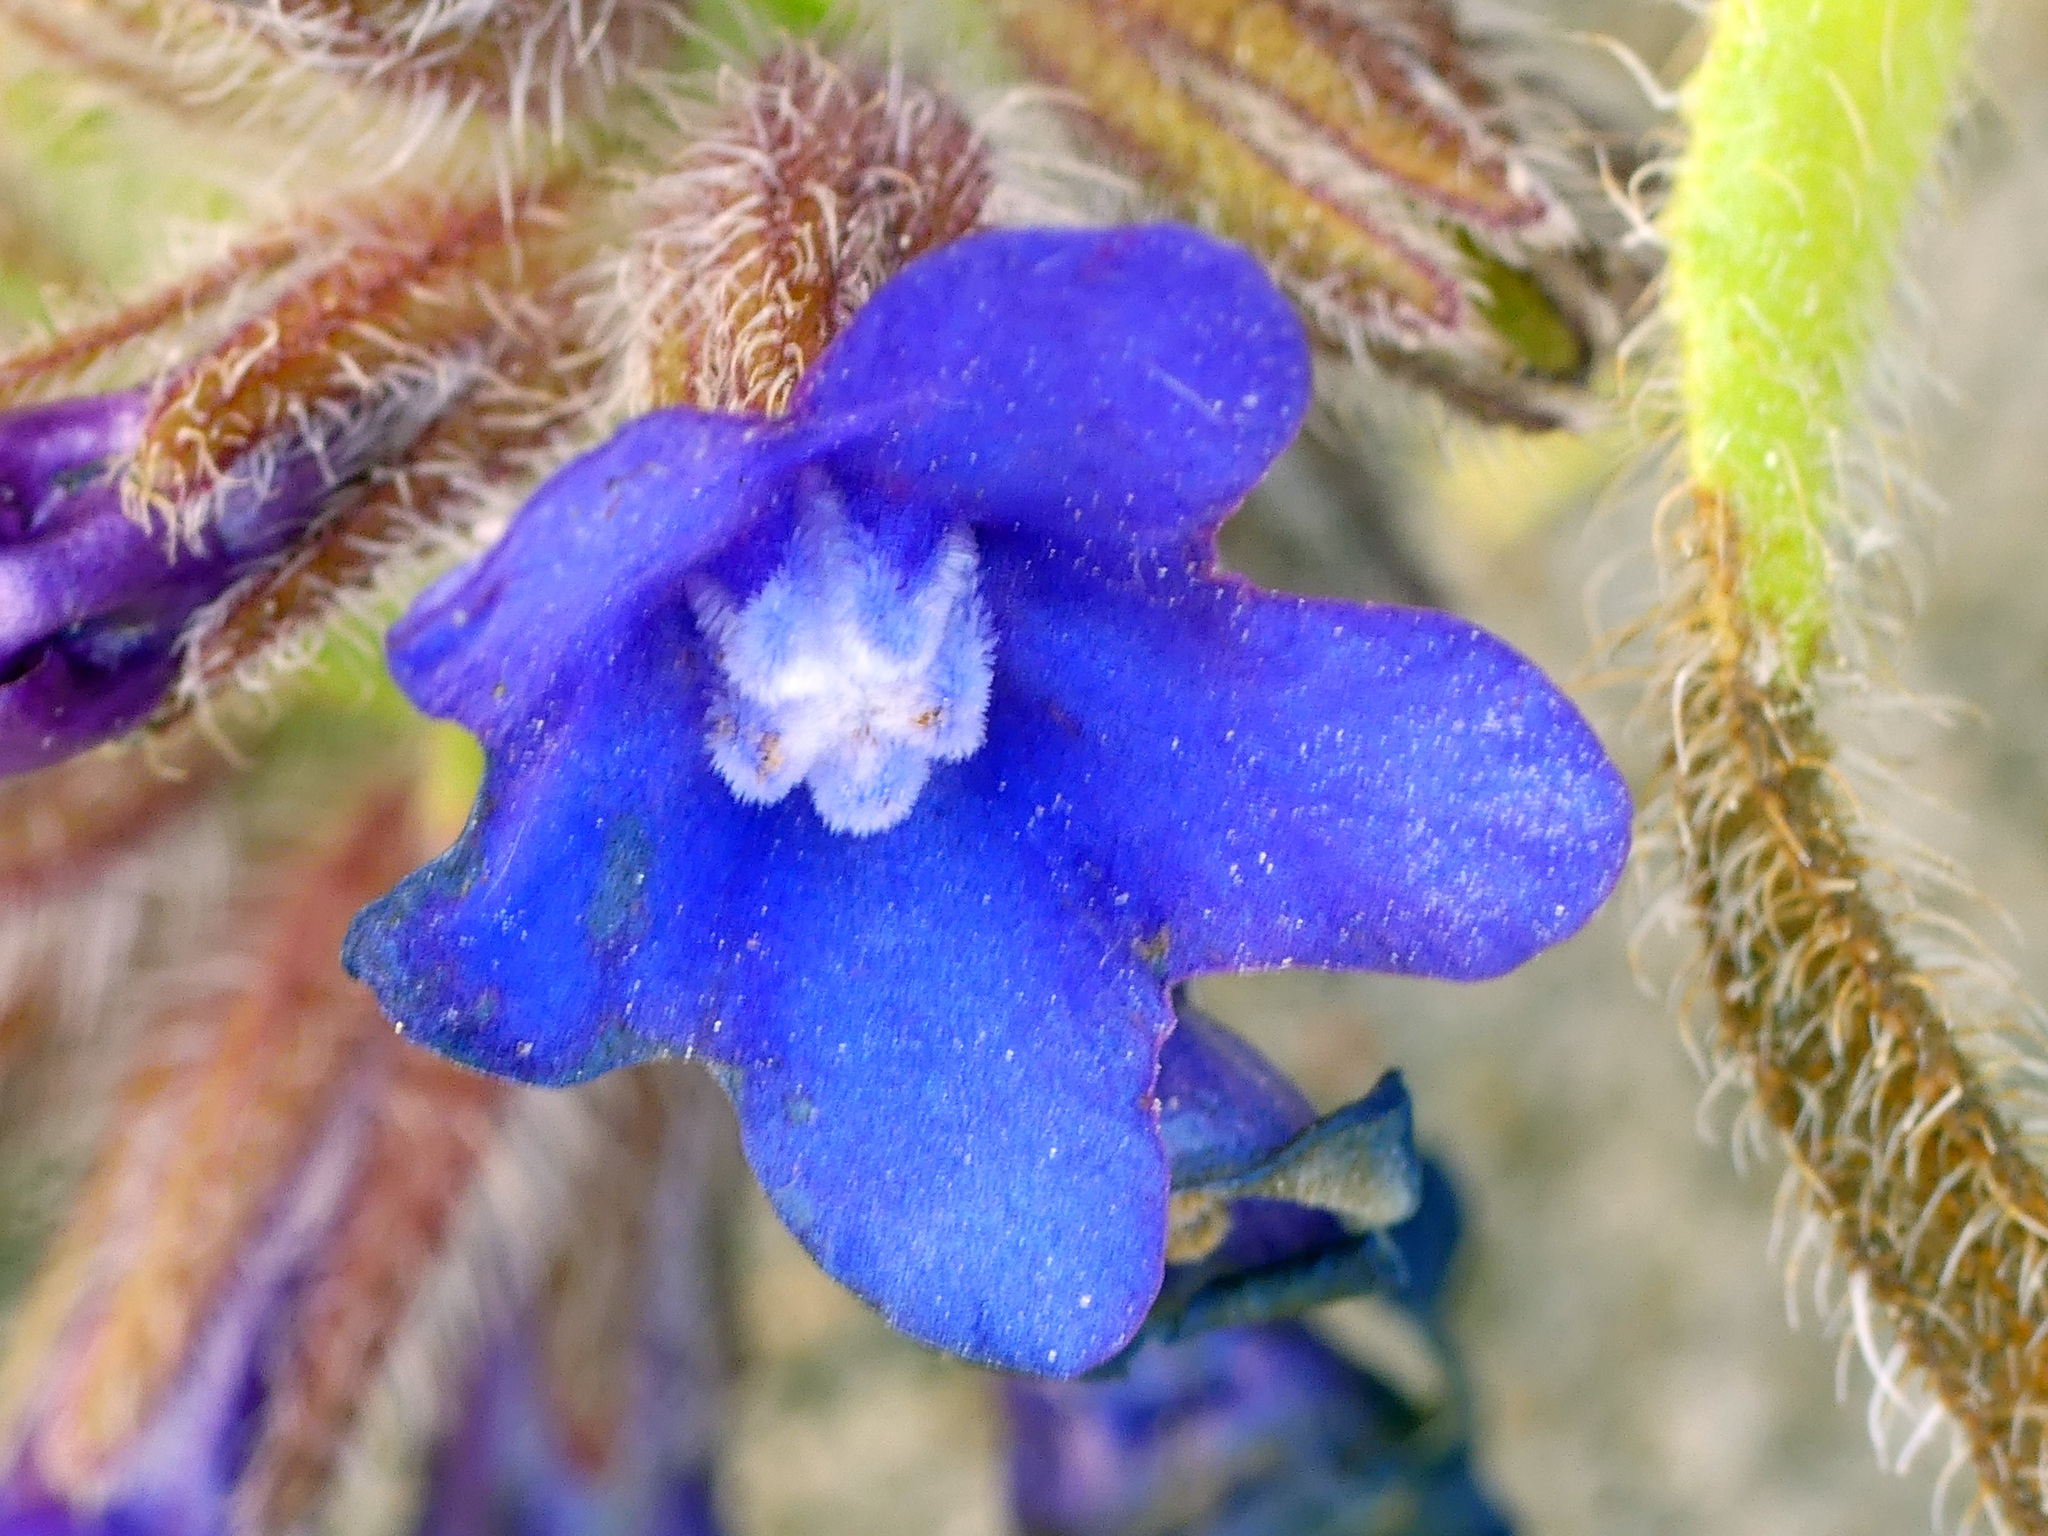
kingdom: Plantae
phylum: Tracheophyta
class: Magnoliopsida
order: Boraginales
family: Boraginaceae
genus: Anchusa
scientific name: Anchusa officinalis
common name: Alkanet
